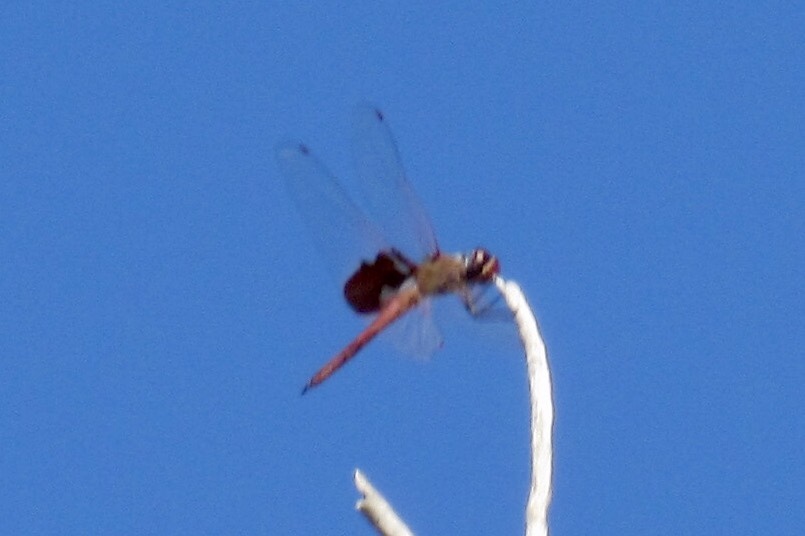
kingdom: Animalia
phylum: Arthropoda
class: Insecta
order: Odonata
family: Libellulidae
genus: Tramea
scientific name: Tramea onusta
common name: Red saddlebags
